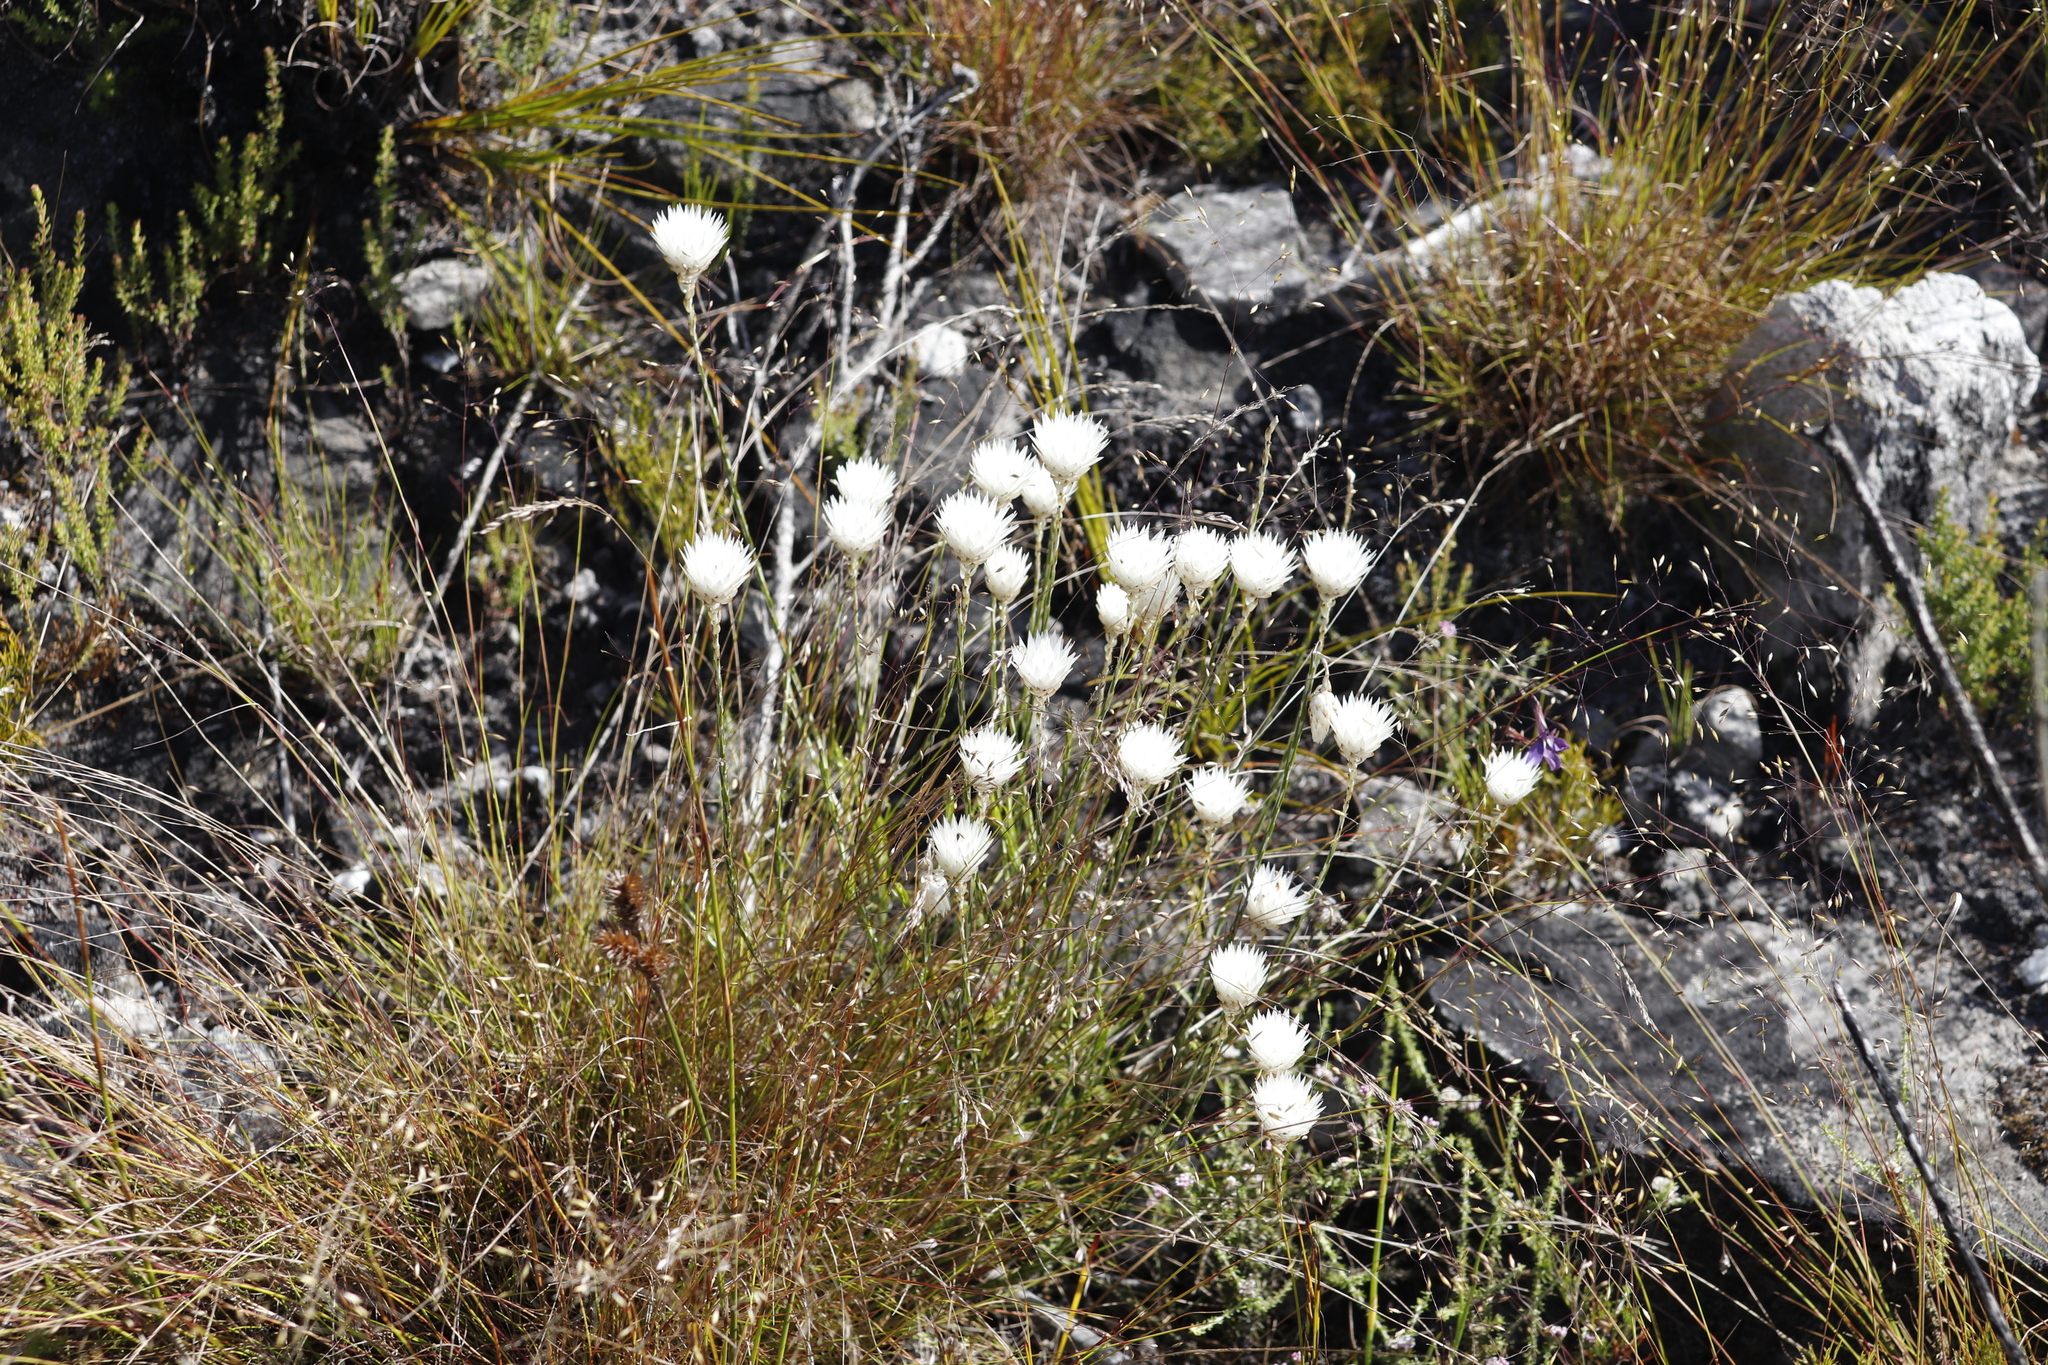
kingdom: Plantae
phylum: Tracheophyta
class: Magnoliopsida
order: Asterales
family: Asteraceae
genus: Edmondia
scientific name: Edmondia sesamoides
